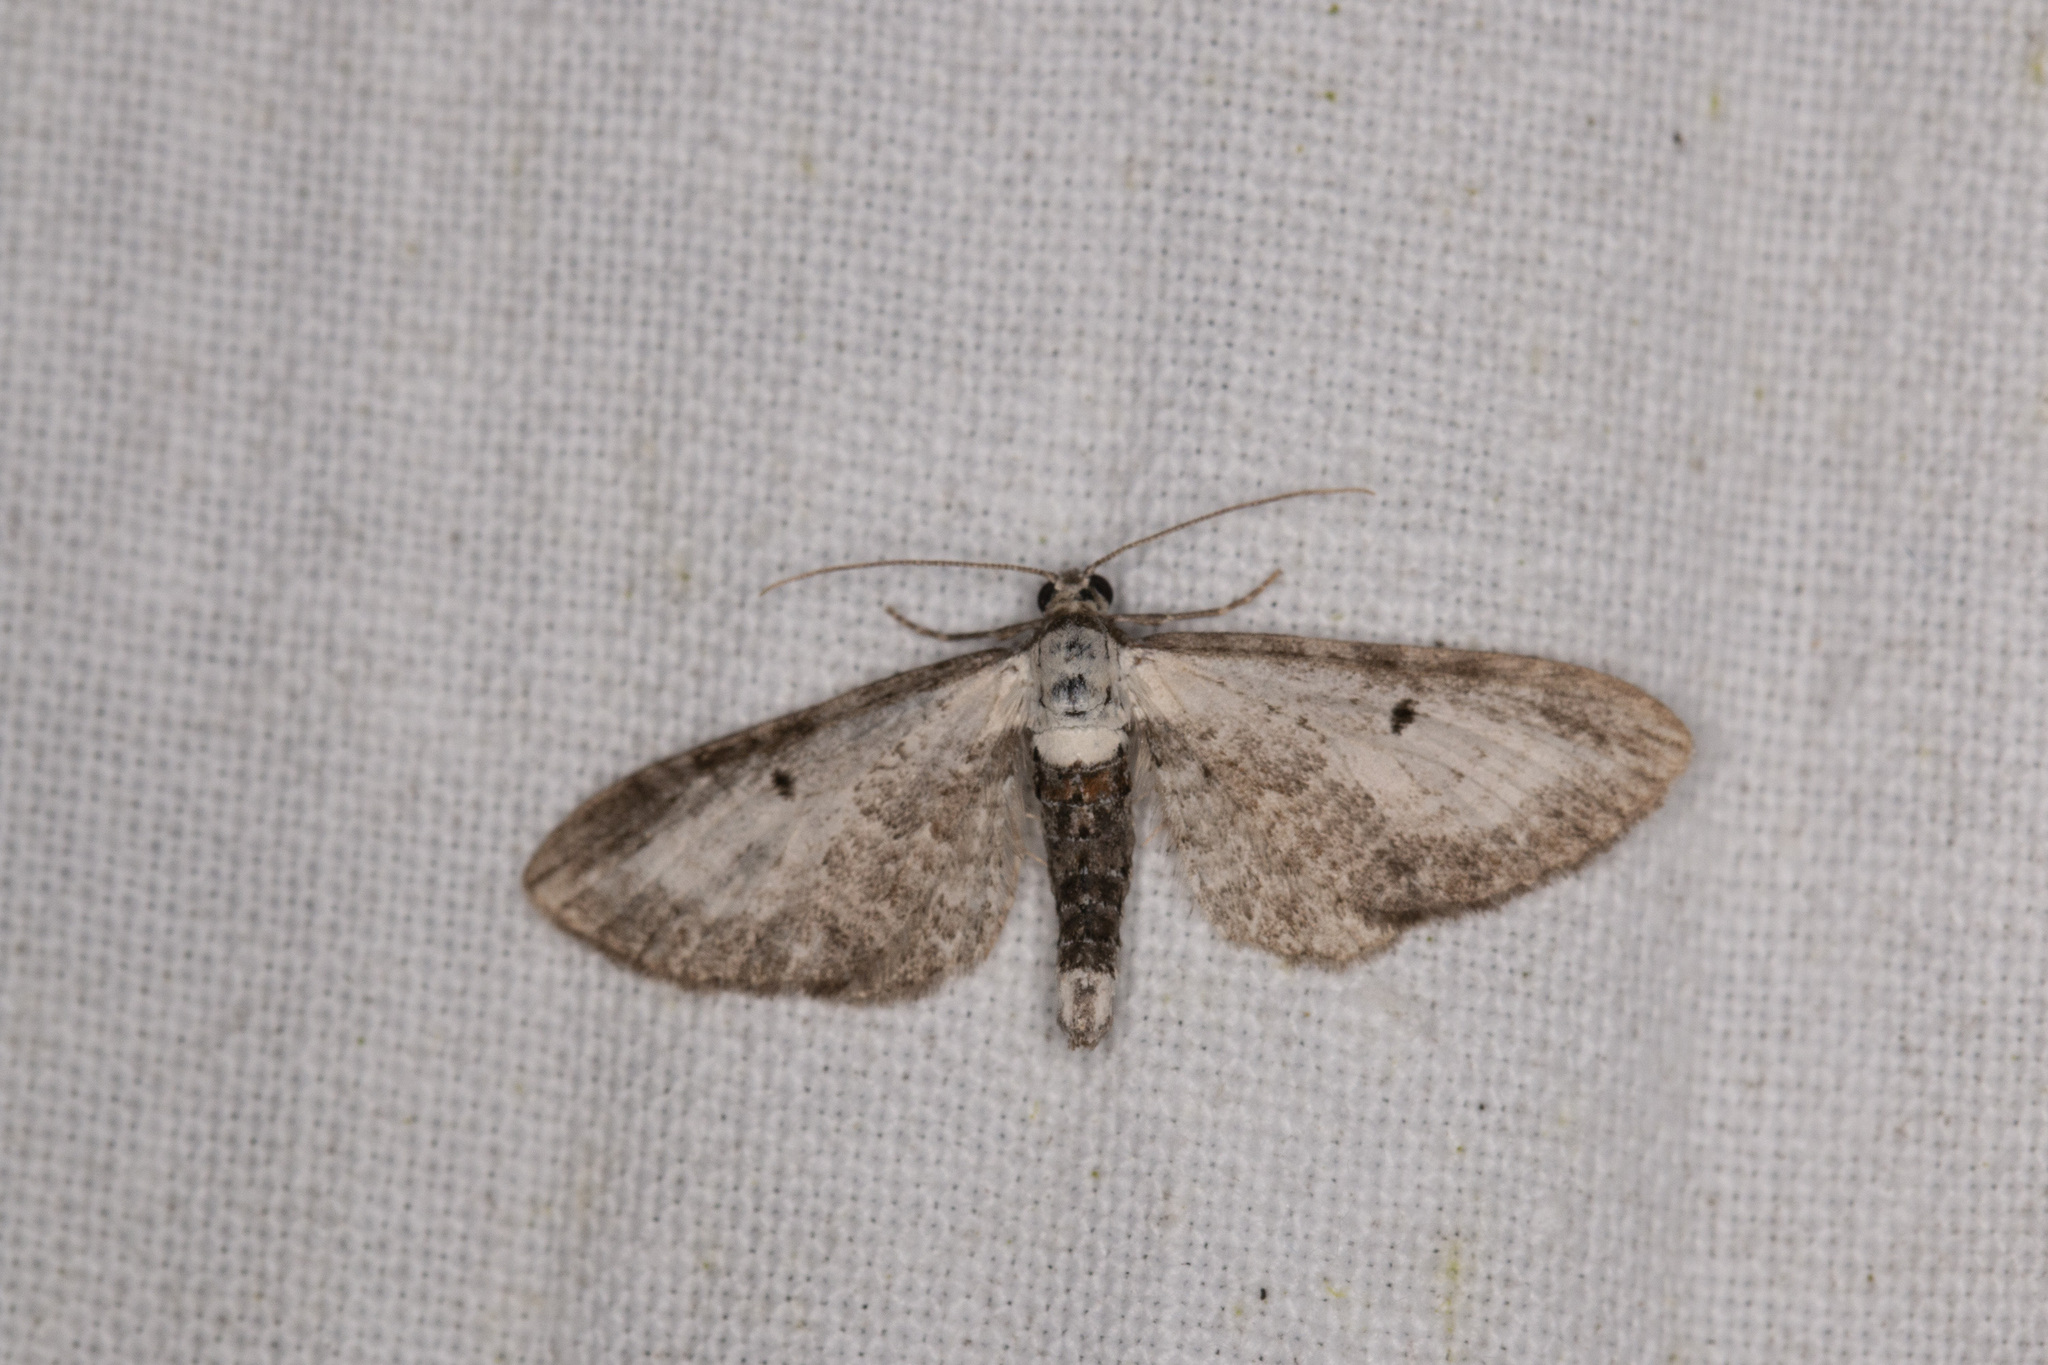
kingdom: Animalia
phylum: Arthropoda
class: Insecta
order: Lepidoptera
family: Geometridae
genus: Eupithecia
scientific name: Eupithecia succenturiata
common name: Bordered pug
